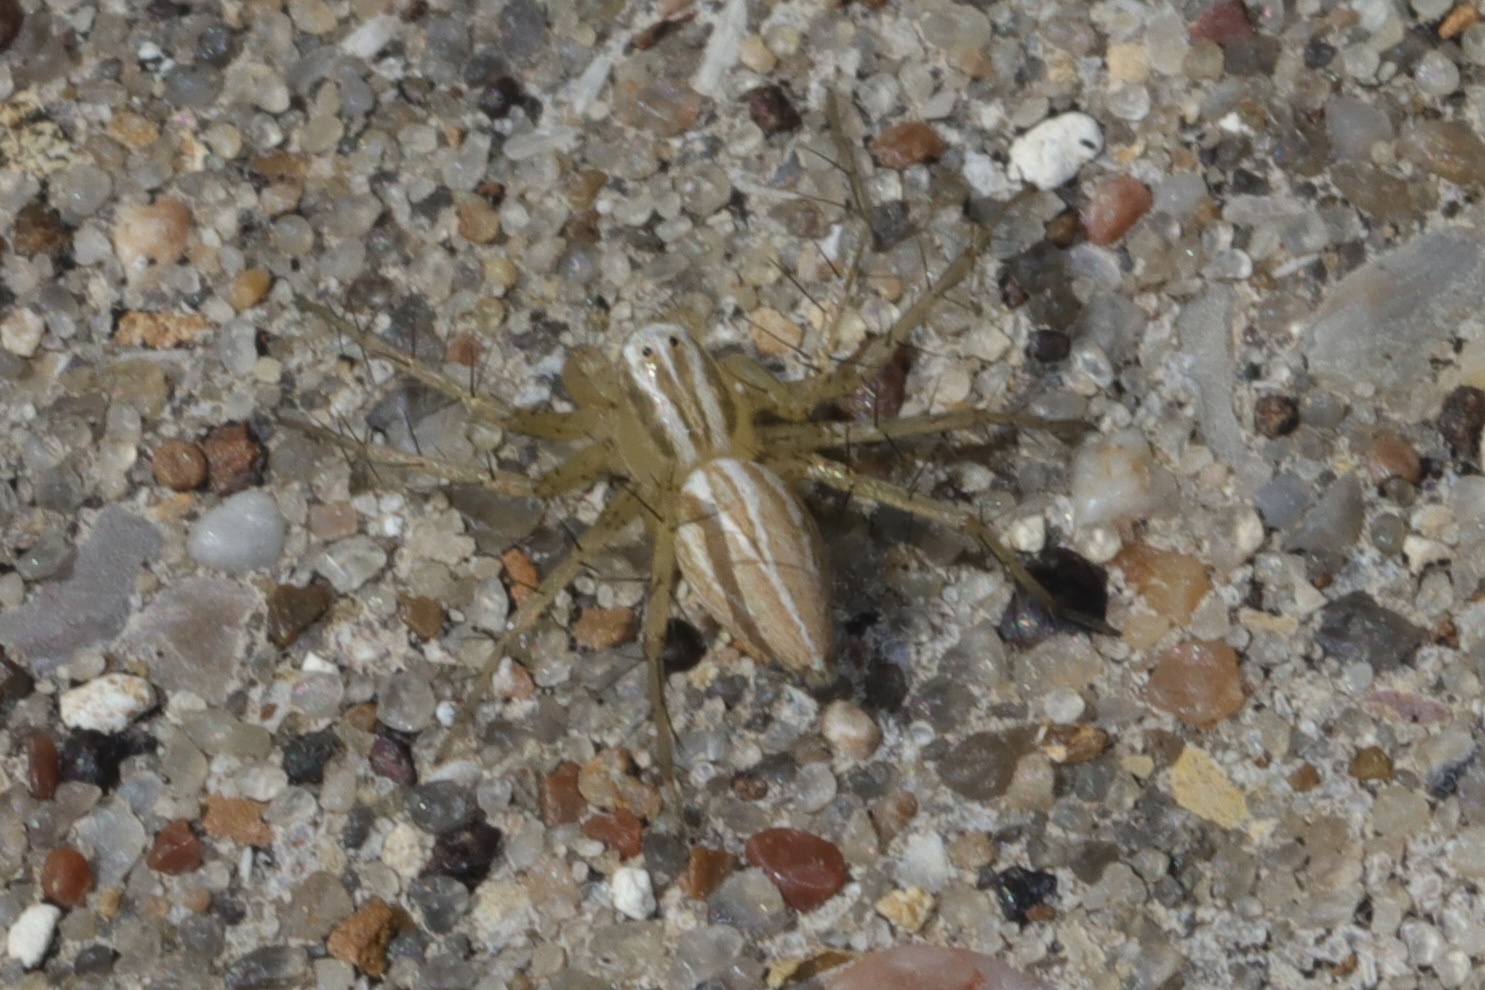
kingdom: Animalia
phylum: Arthropoda
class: Arachnida
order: Araneae
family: Oxyopidae
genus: Oxyopes
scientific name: Oxyopes salticus
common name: Lynx spiders
